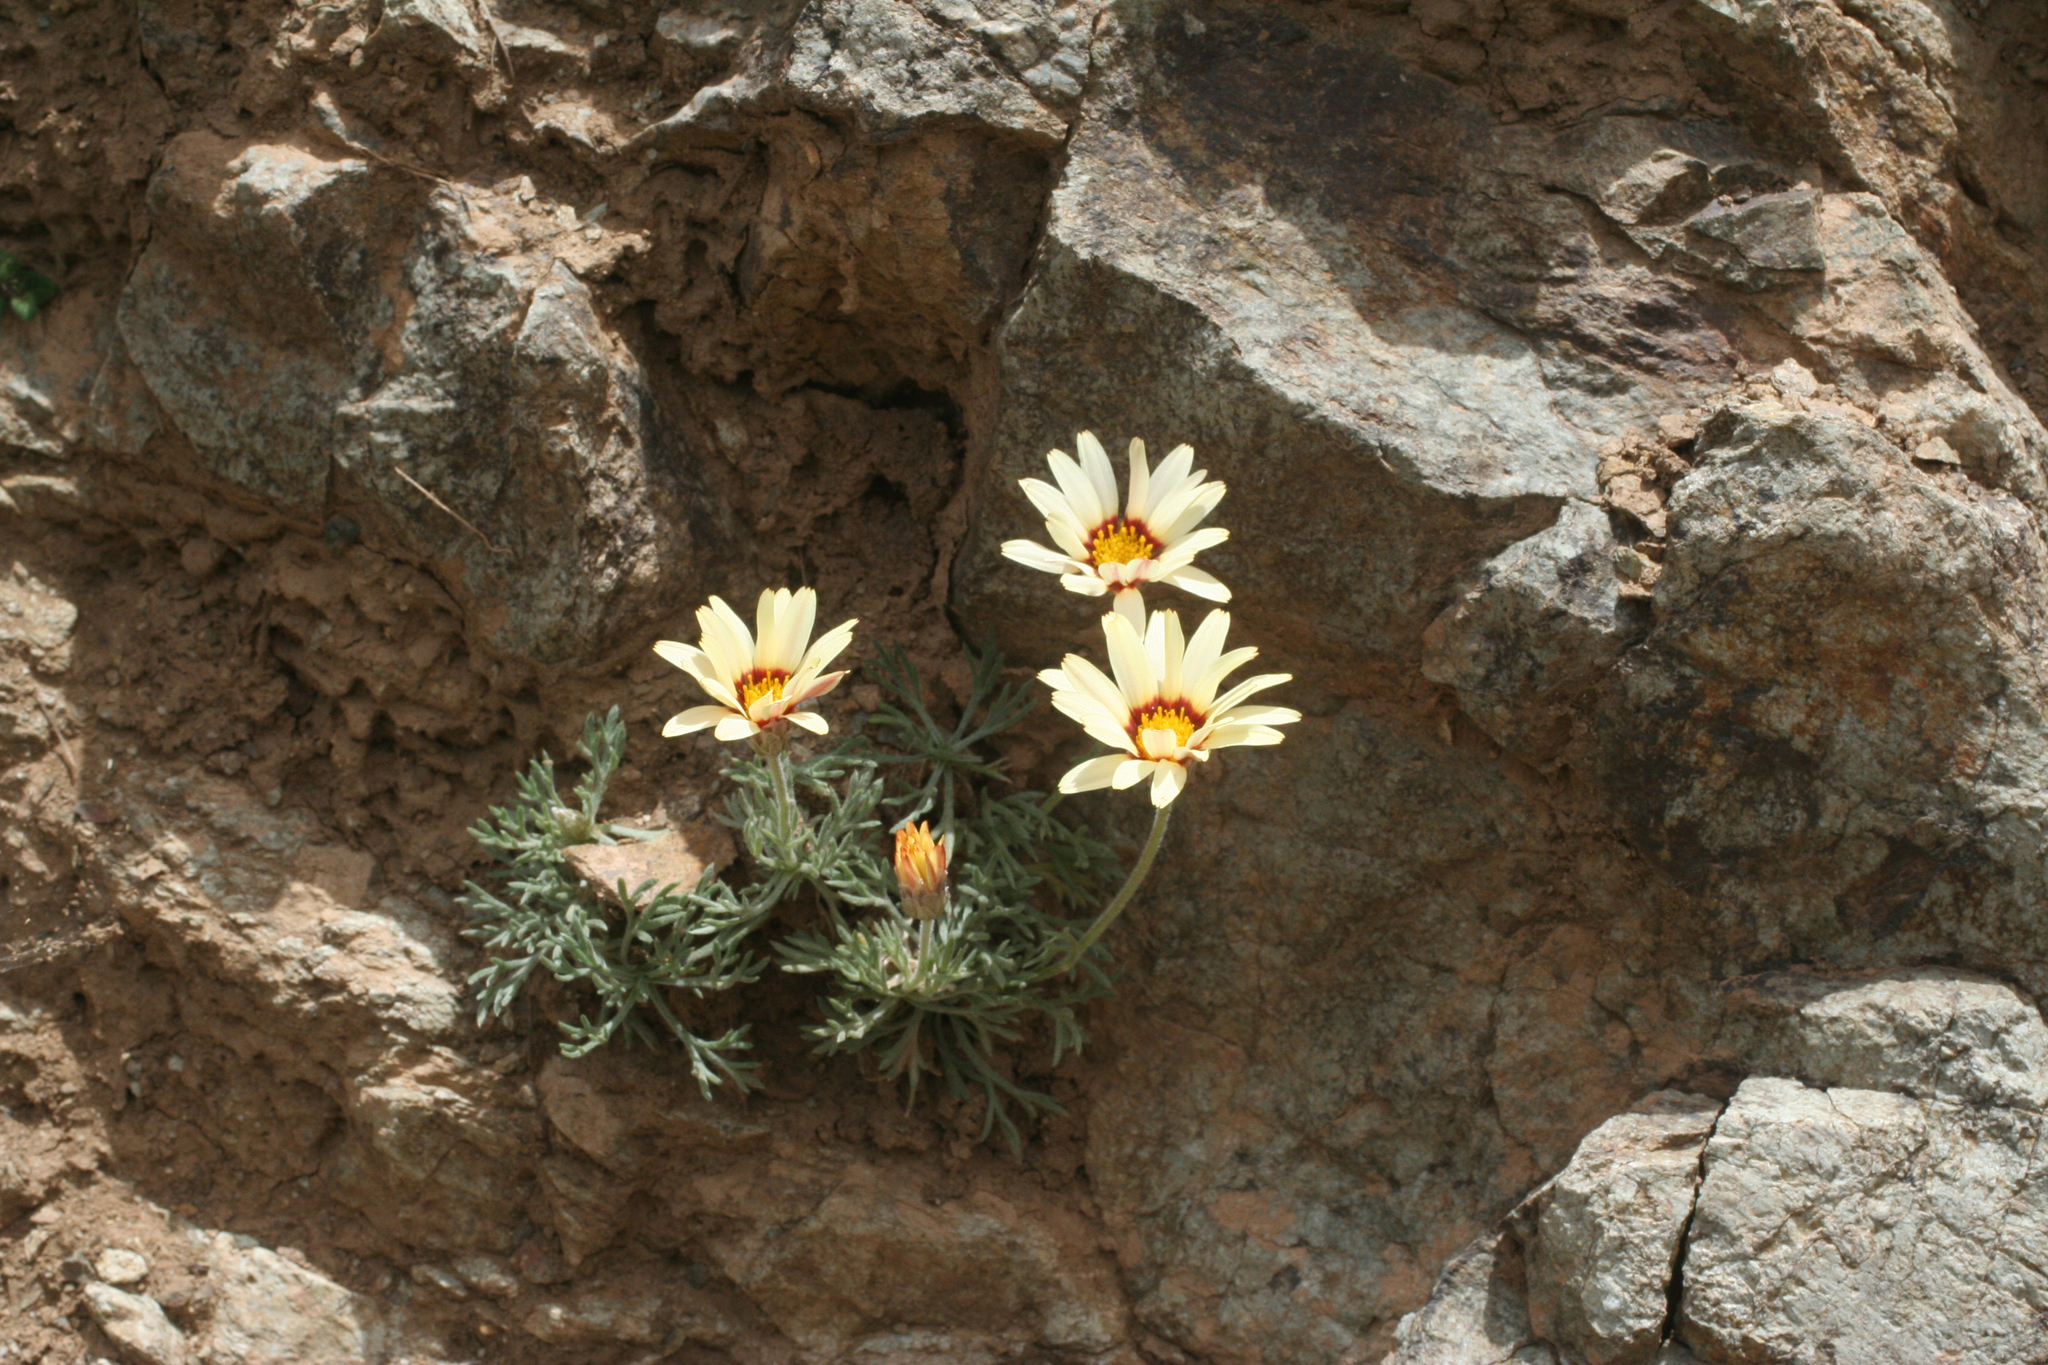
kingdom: Plantae
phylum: Tracheophyta
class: Magnoliopsida
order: Asterales
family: Asteraceae
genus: Rhodanthemum
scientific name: Rhodanthemum catananche
